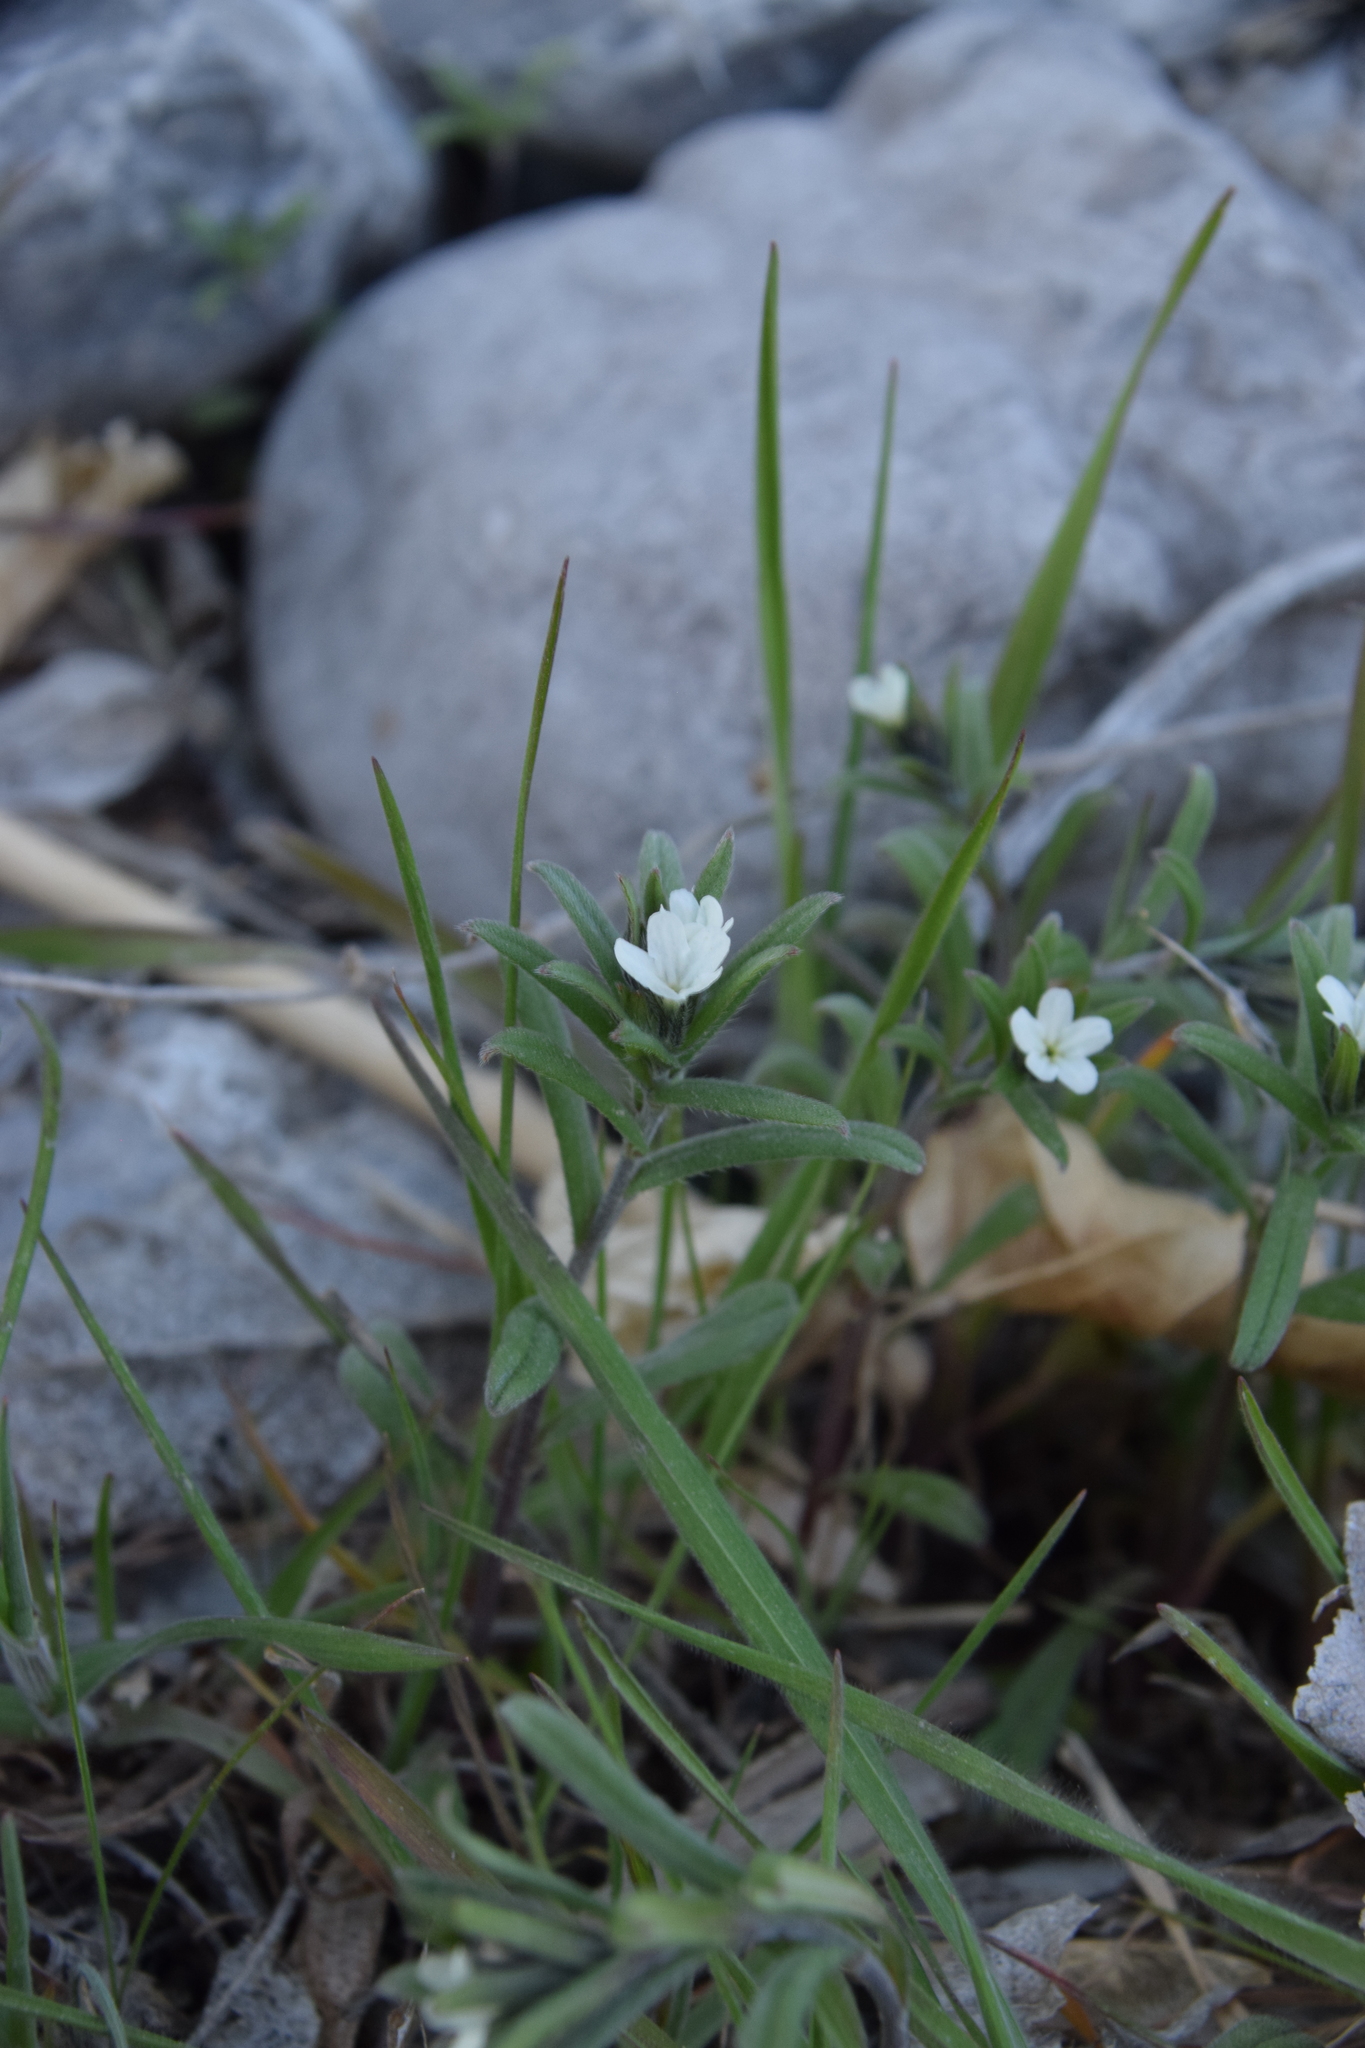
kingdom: Plantae
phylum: Tracheophyta
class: Magnoliopsida
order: Boraginales
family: Boraginaceae
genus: Buglossoides
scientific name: Buglossoides arvensis
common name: Corn gromwell
